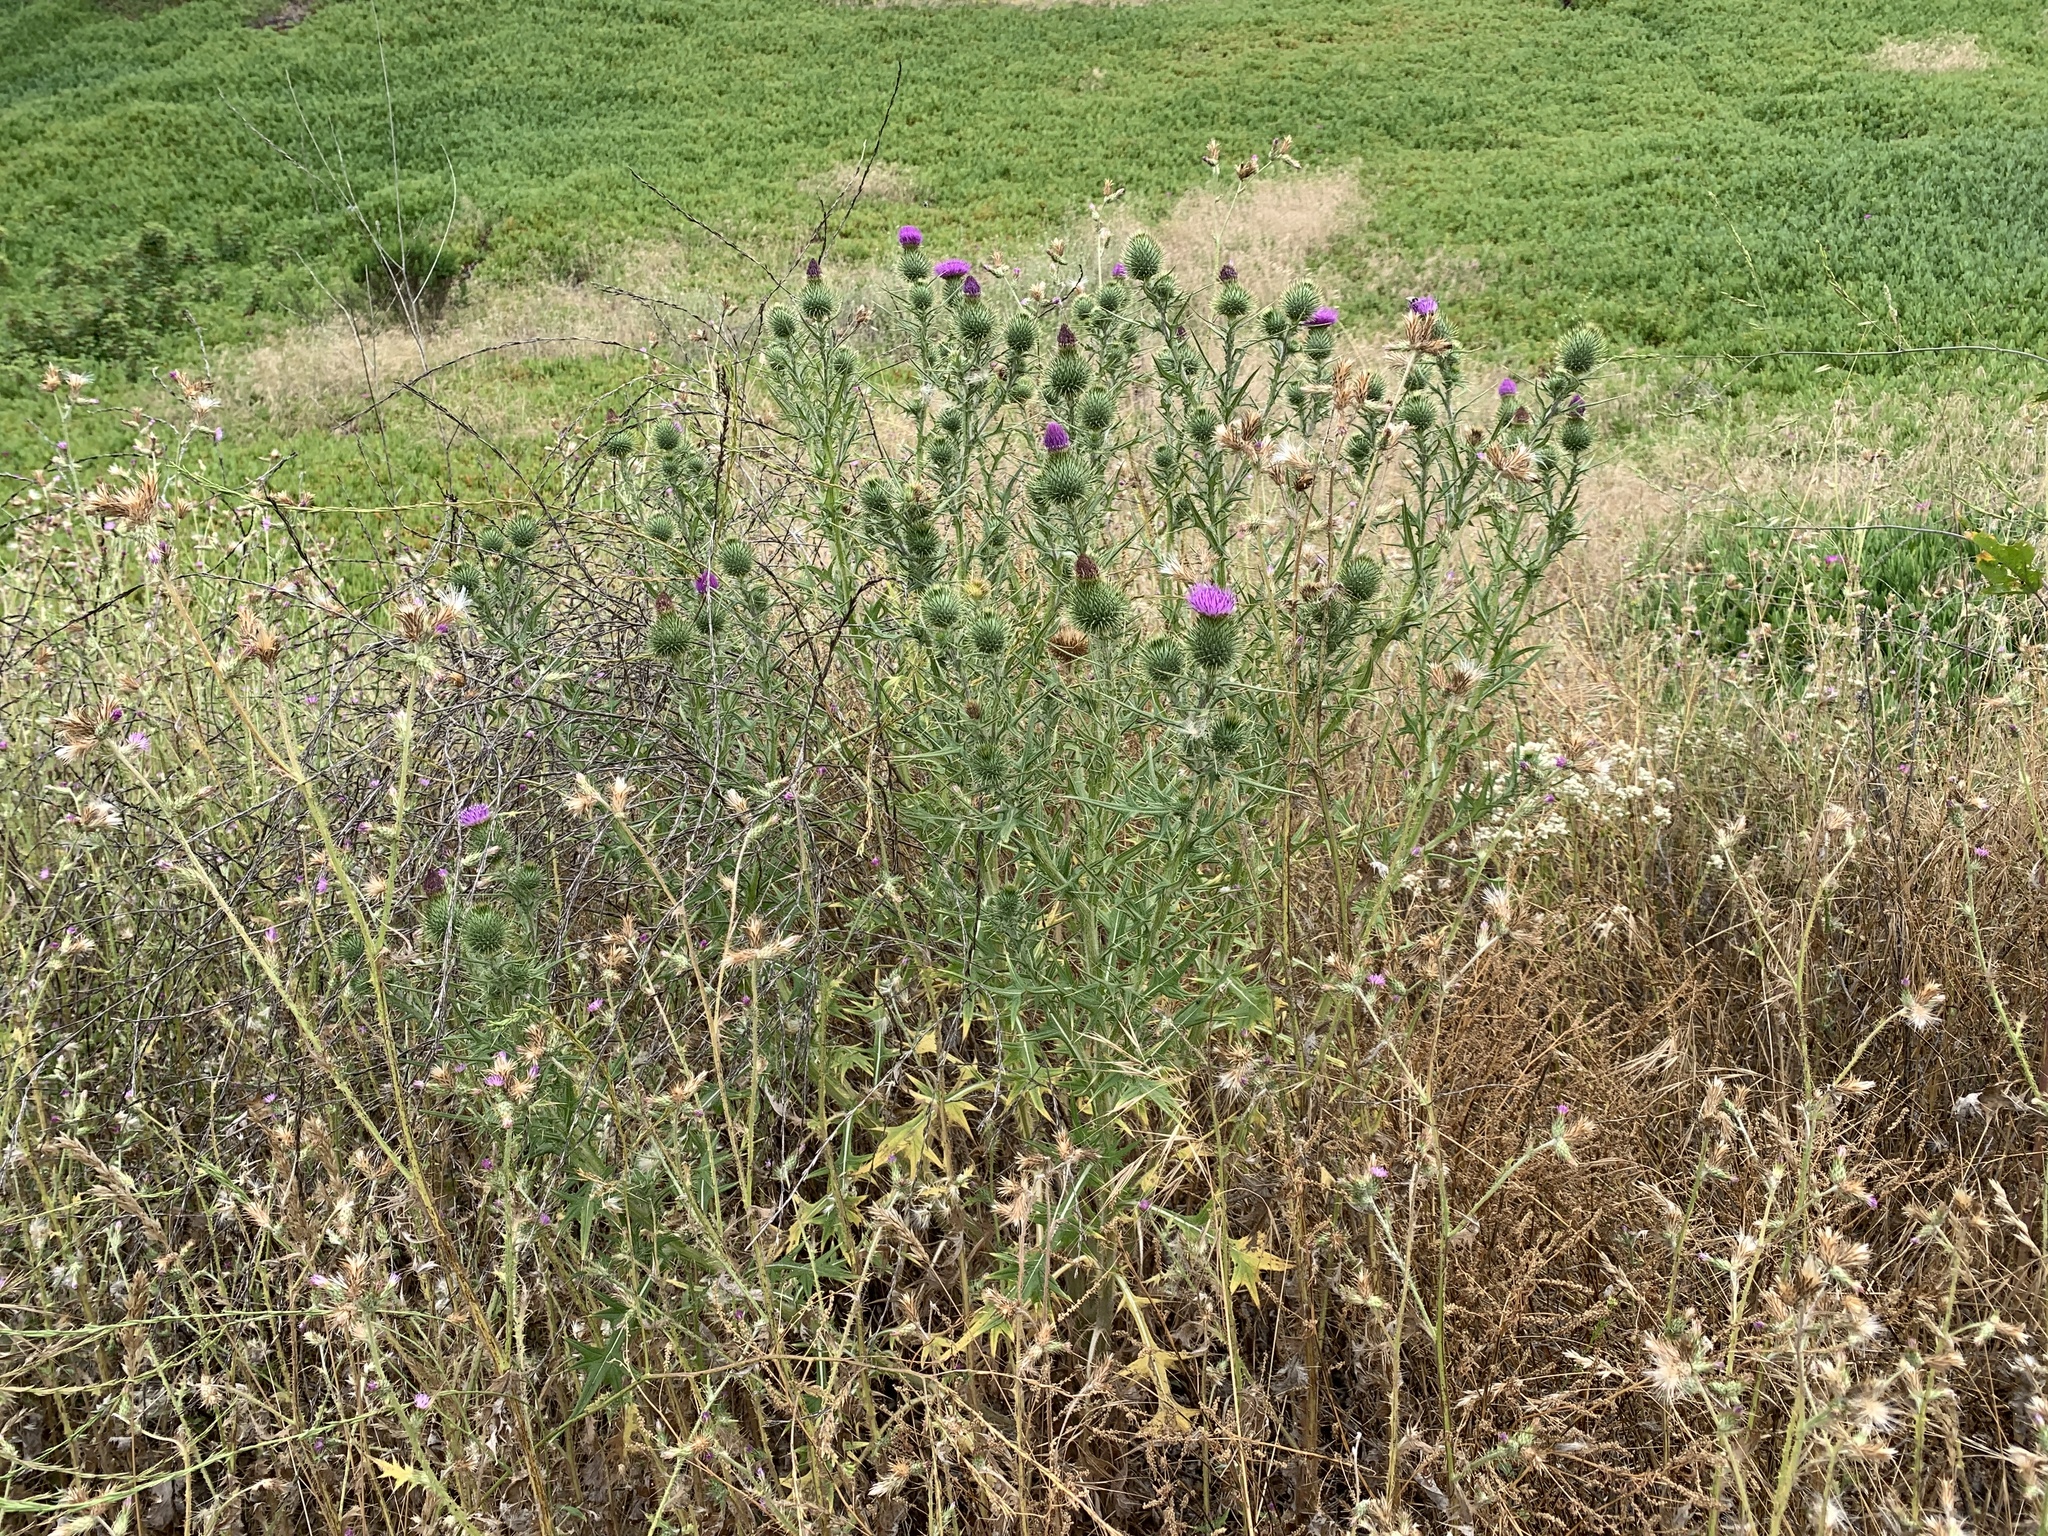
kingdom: Plantae
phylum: Tracheophyta
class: Magnoliopsida
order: Asterales
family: Asteraceae
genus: Cirsium
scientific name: Cirsium vulgare
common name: Bull thistle
